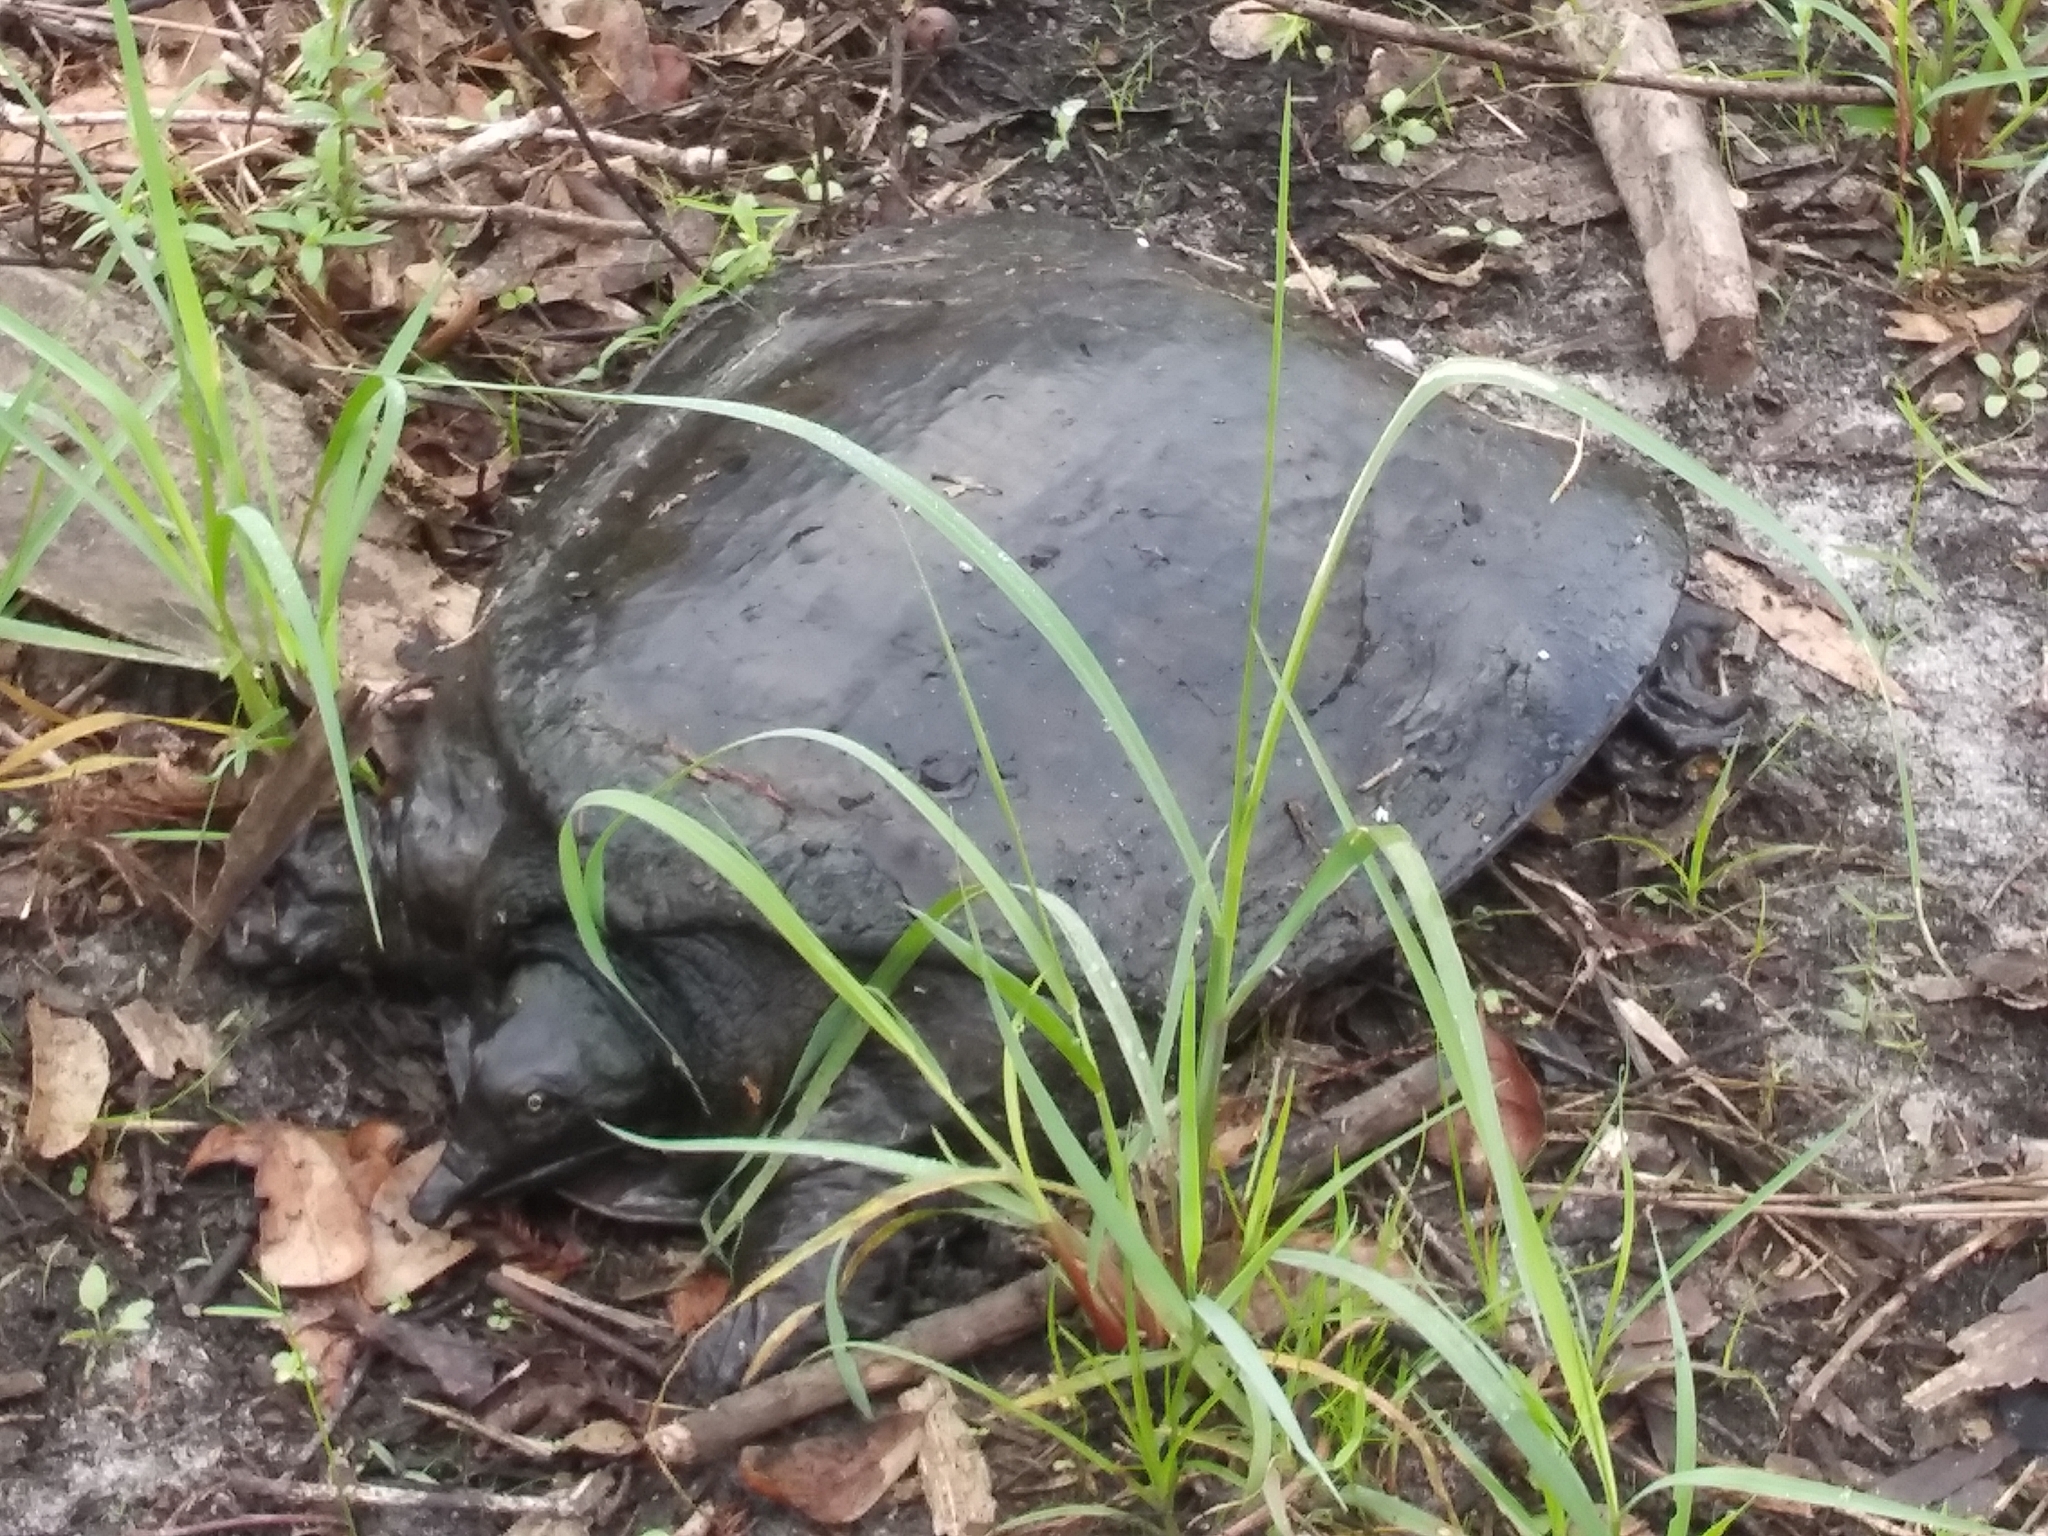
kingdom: Animalia
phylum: Chordata
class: Testudines
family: Trionychidae
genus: Apalone
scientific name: Apalone ferox
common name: Florida softshell turtle
